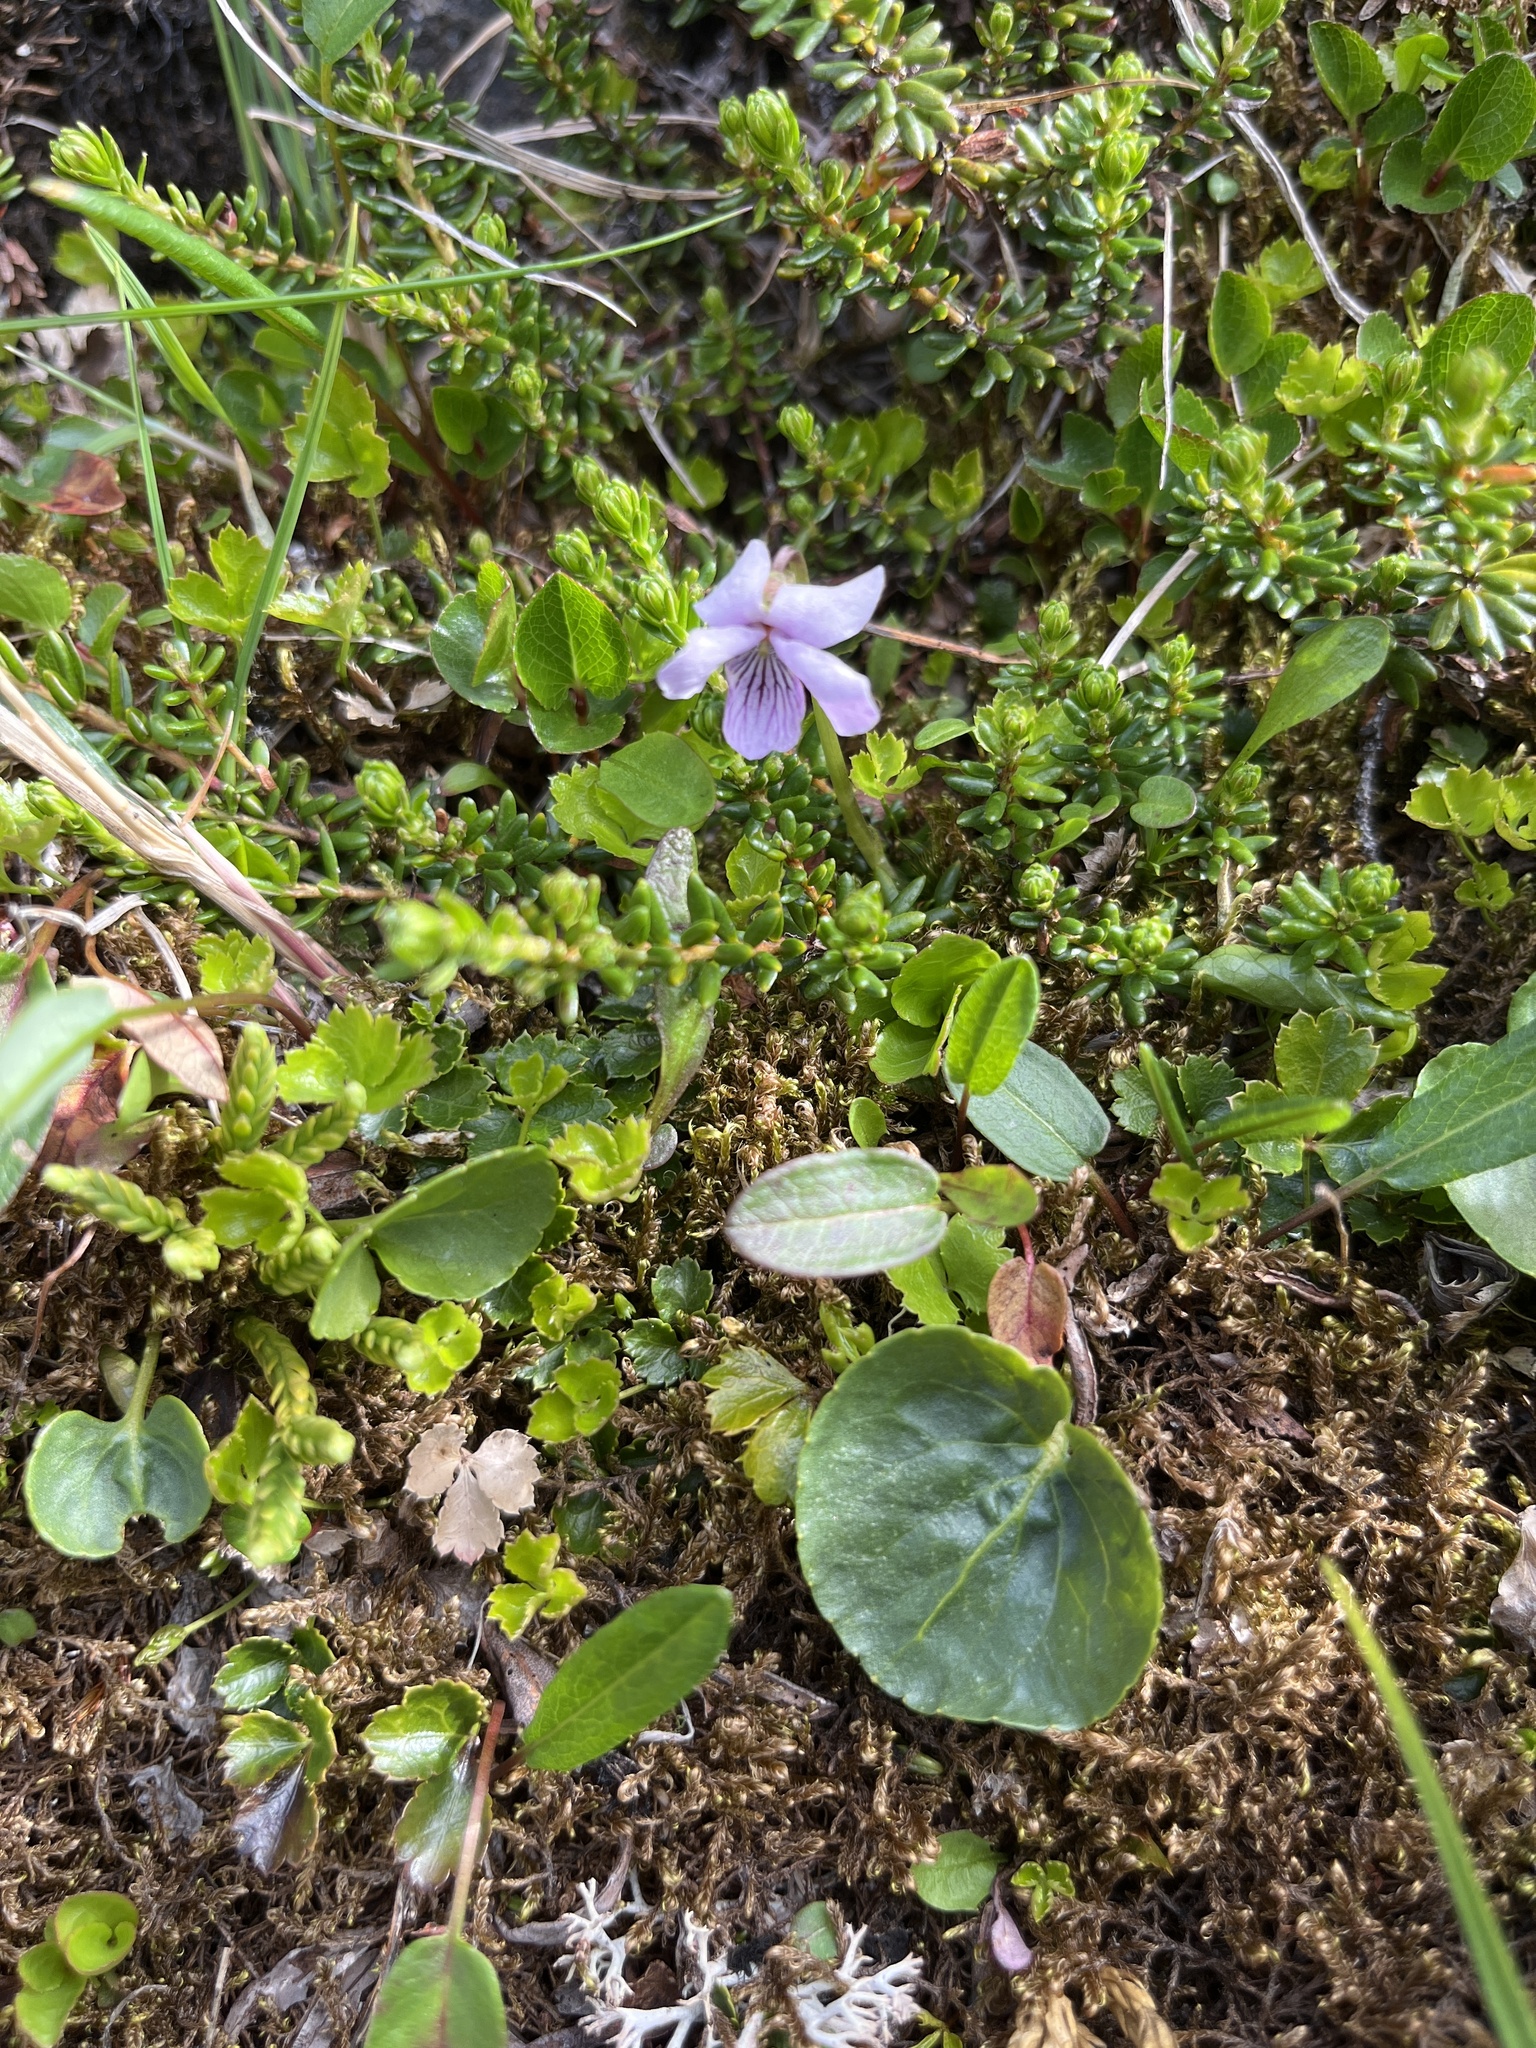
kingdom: Plantae
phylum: Tracheophyta
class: Magnoliopsida
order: Malpighiales
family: Violaceae
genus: Viola
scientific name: Viola palustris
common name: Marsh violet
